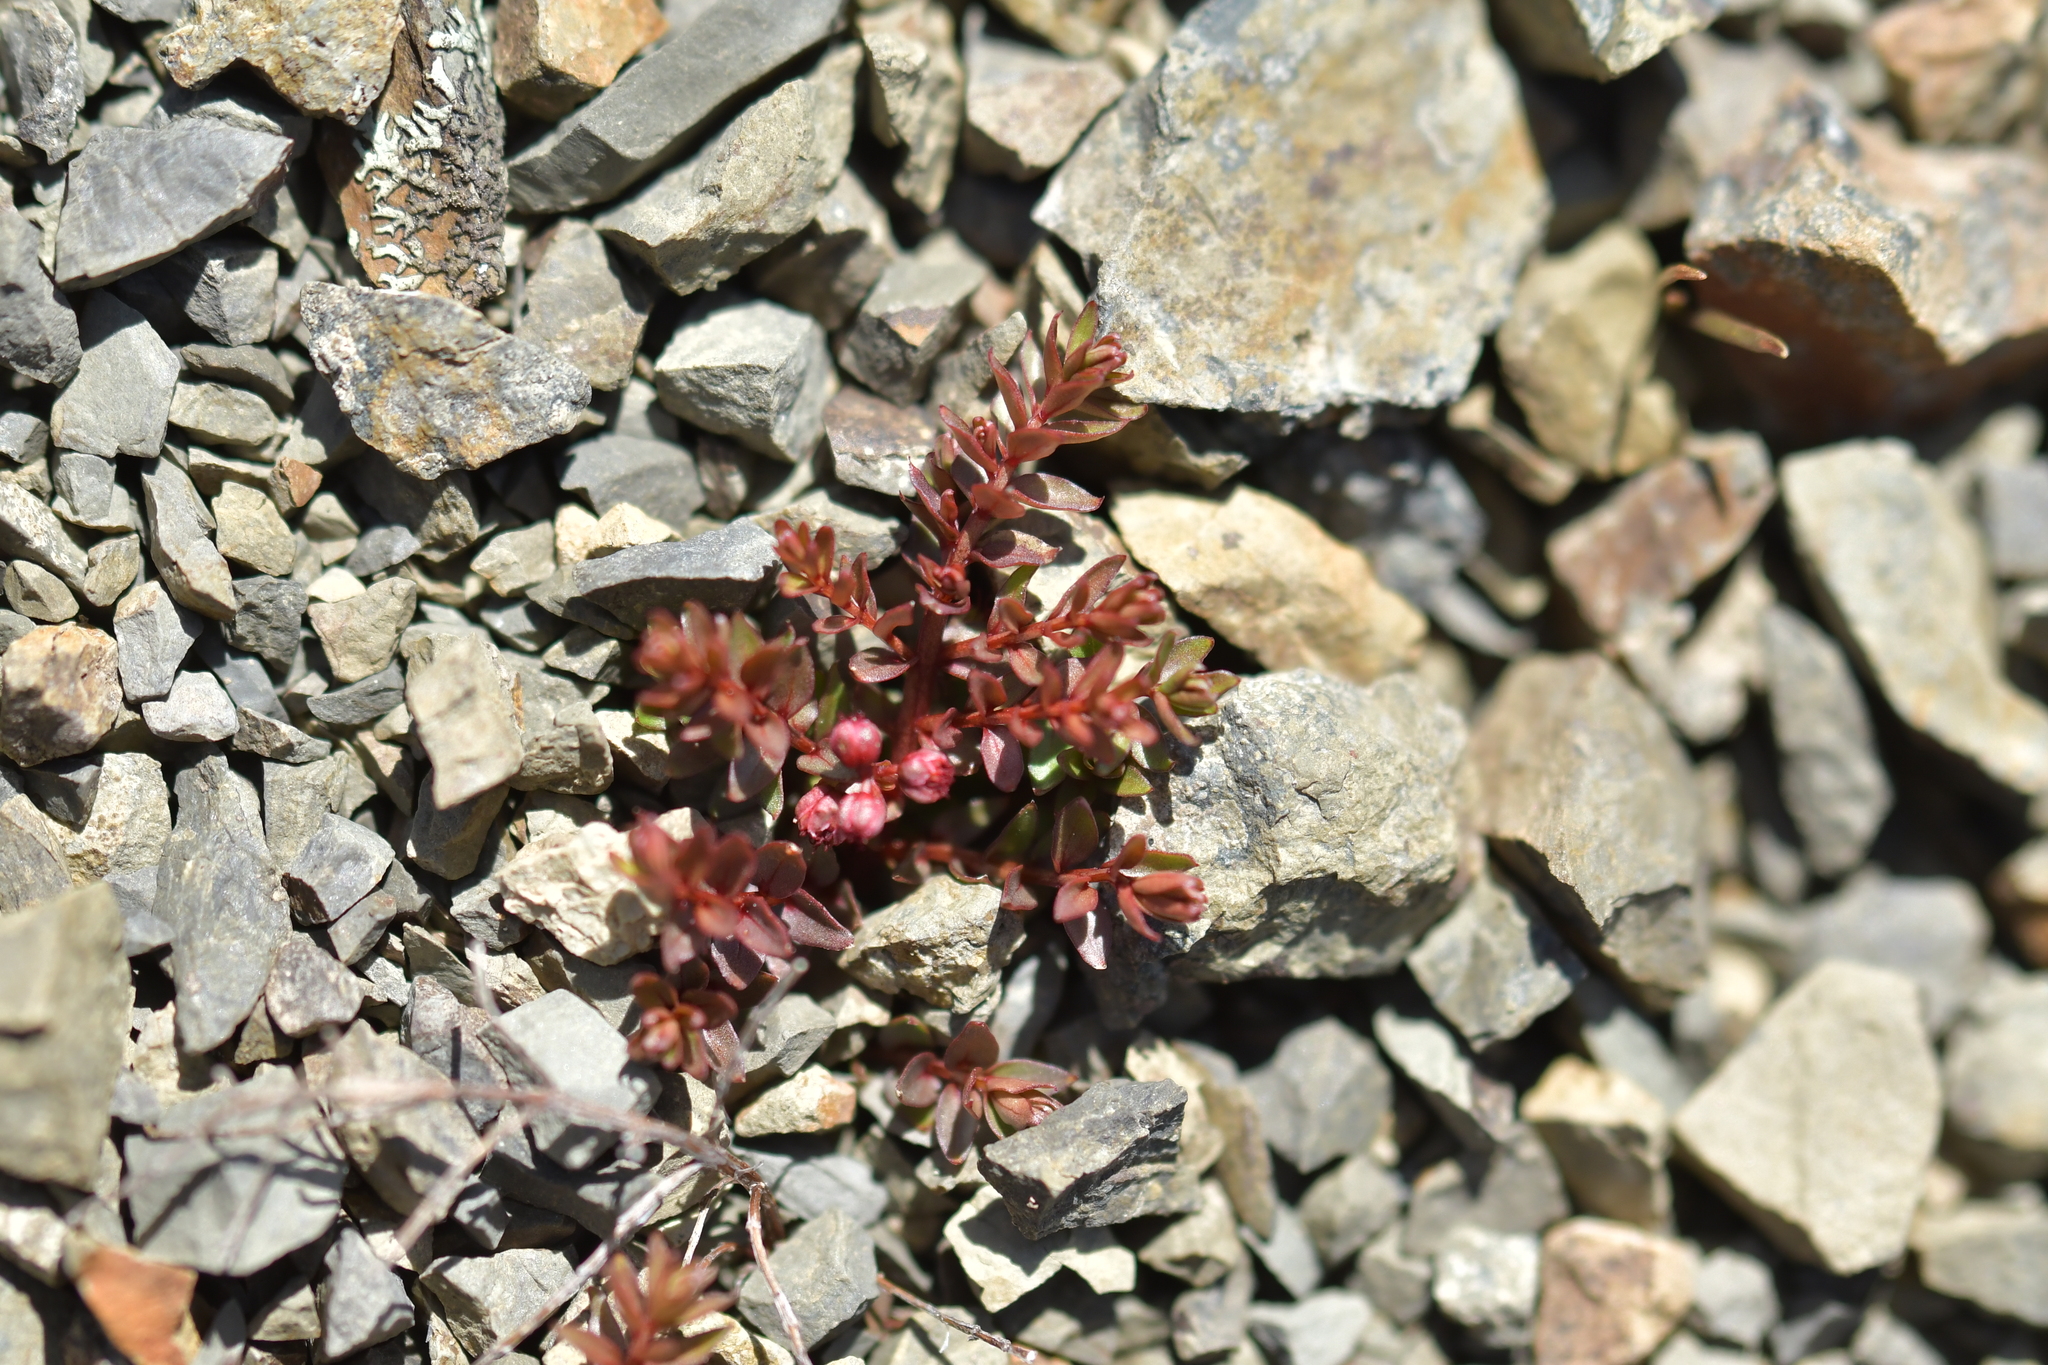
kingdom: Plantae
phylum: Tracheophyta
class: Magnoliopsida
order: Cucurbitales
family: Coriariaceae
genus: Coriaria
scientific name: Coriaria plumosa
